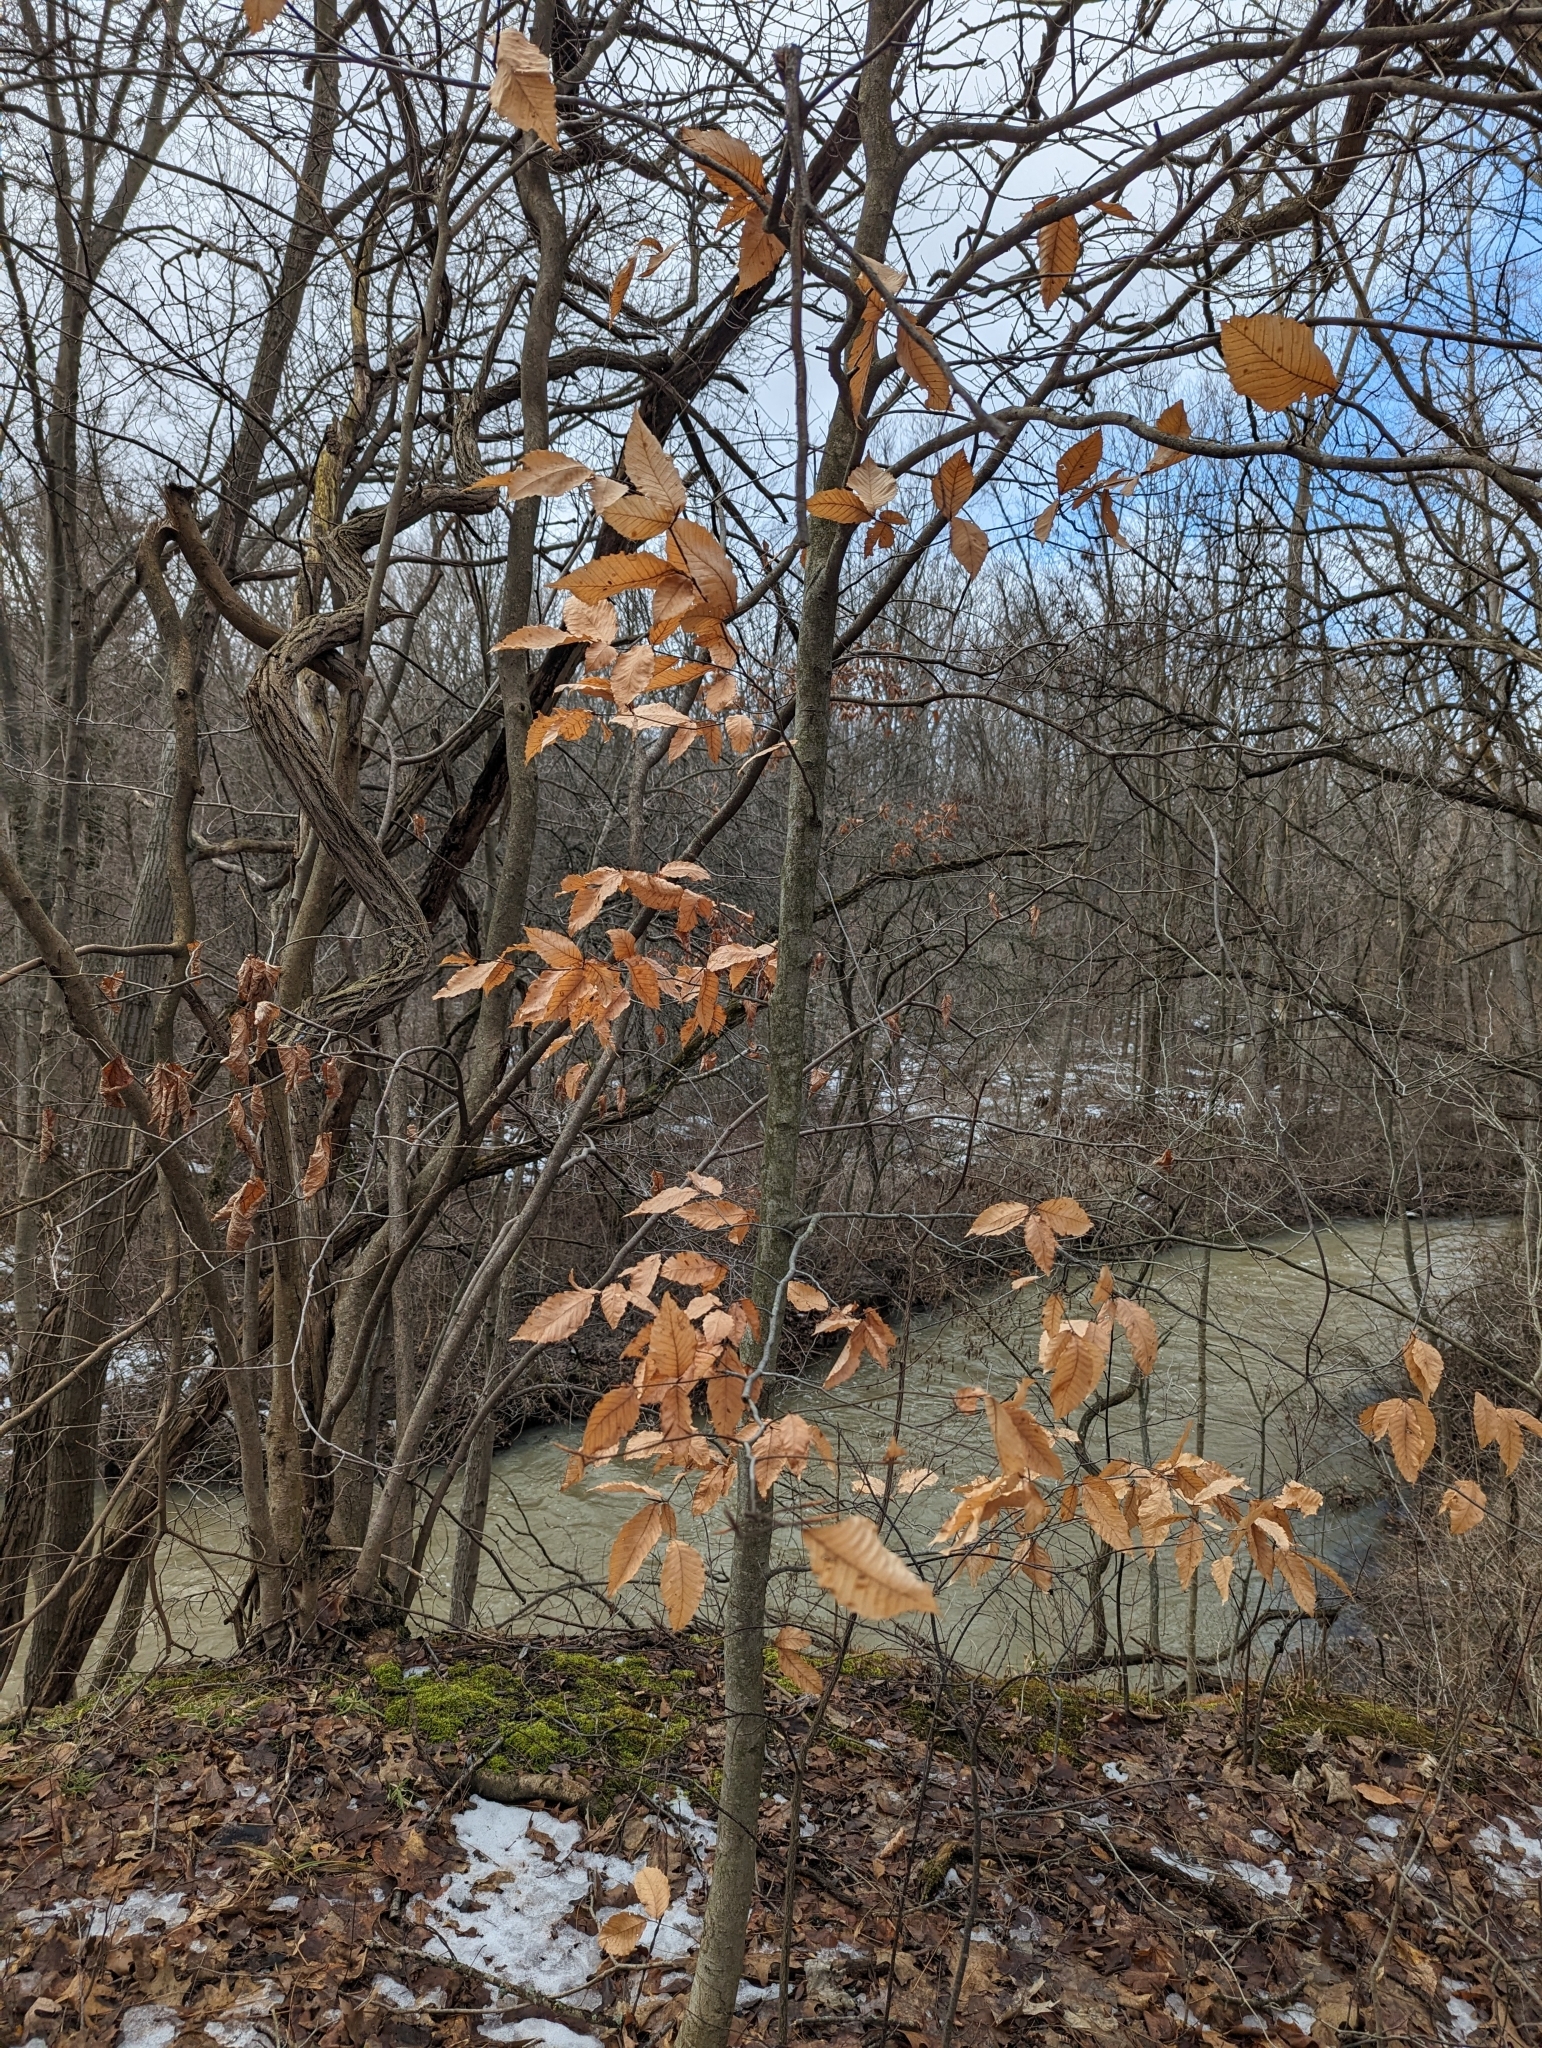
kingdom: Plantae
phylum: Tracheophyta
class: Magnoliopsida
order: Fagales
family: Fagaceae
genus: Fagus
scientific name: Fagus grandifolia
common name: American beech
